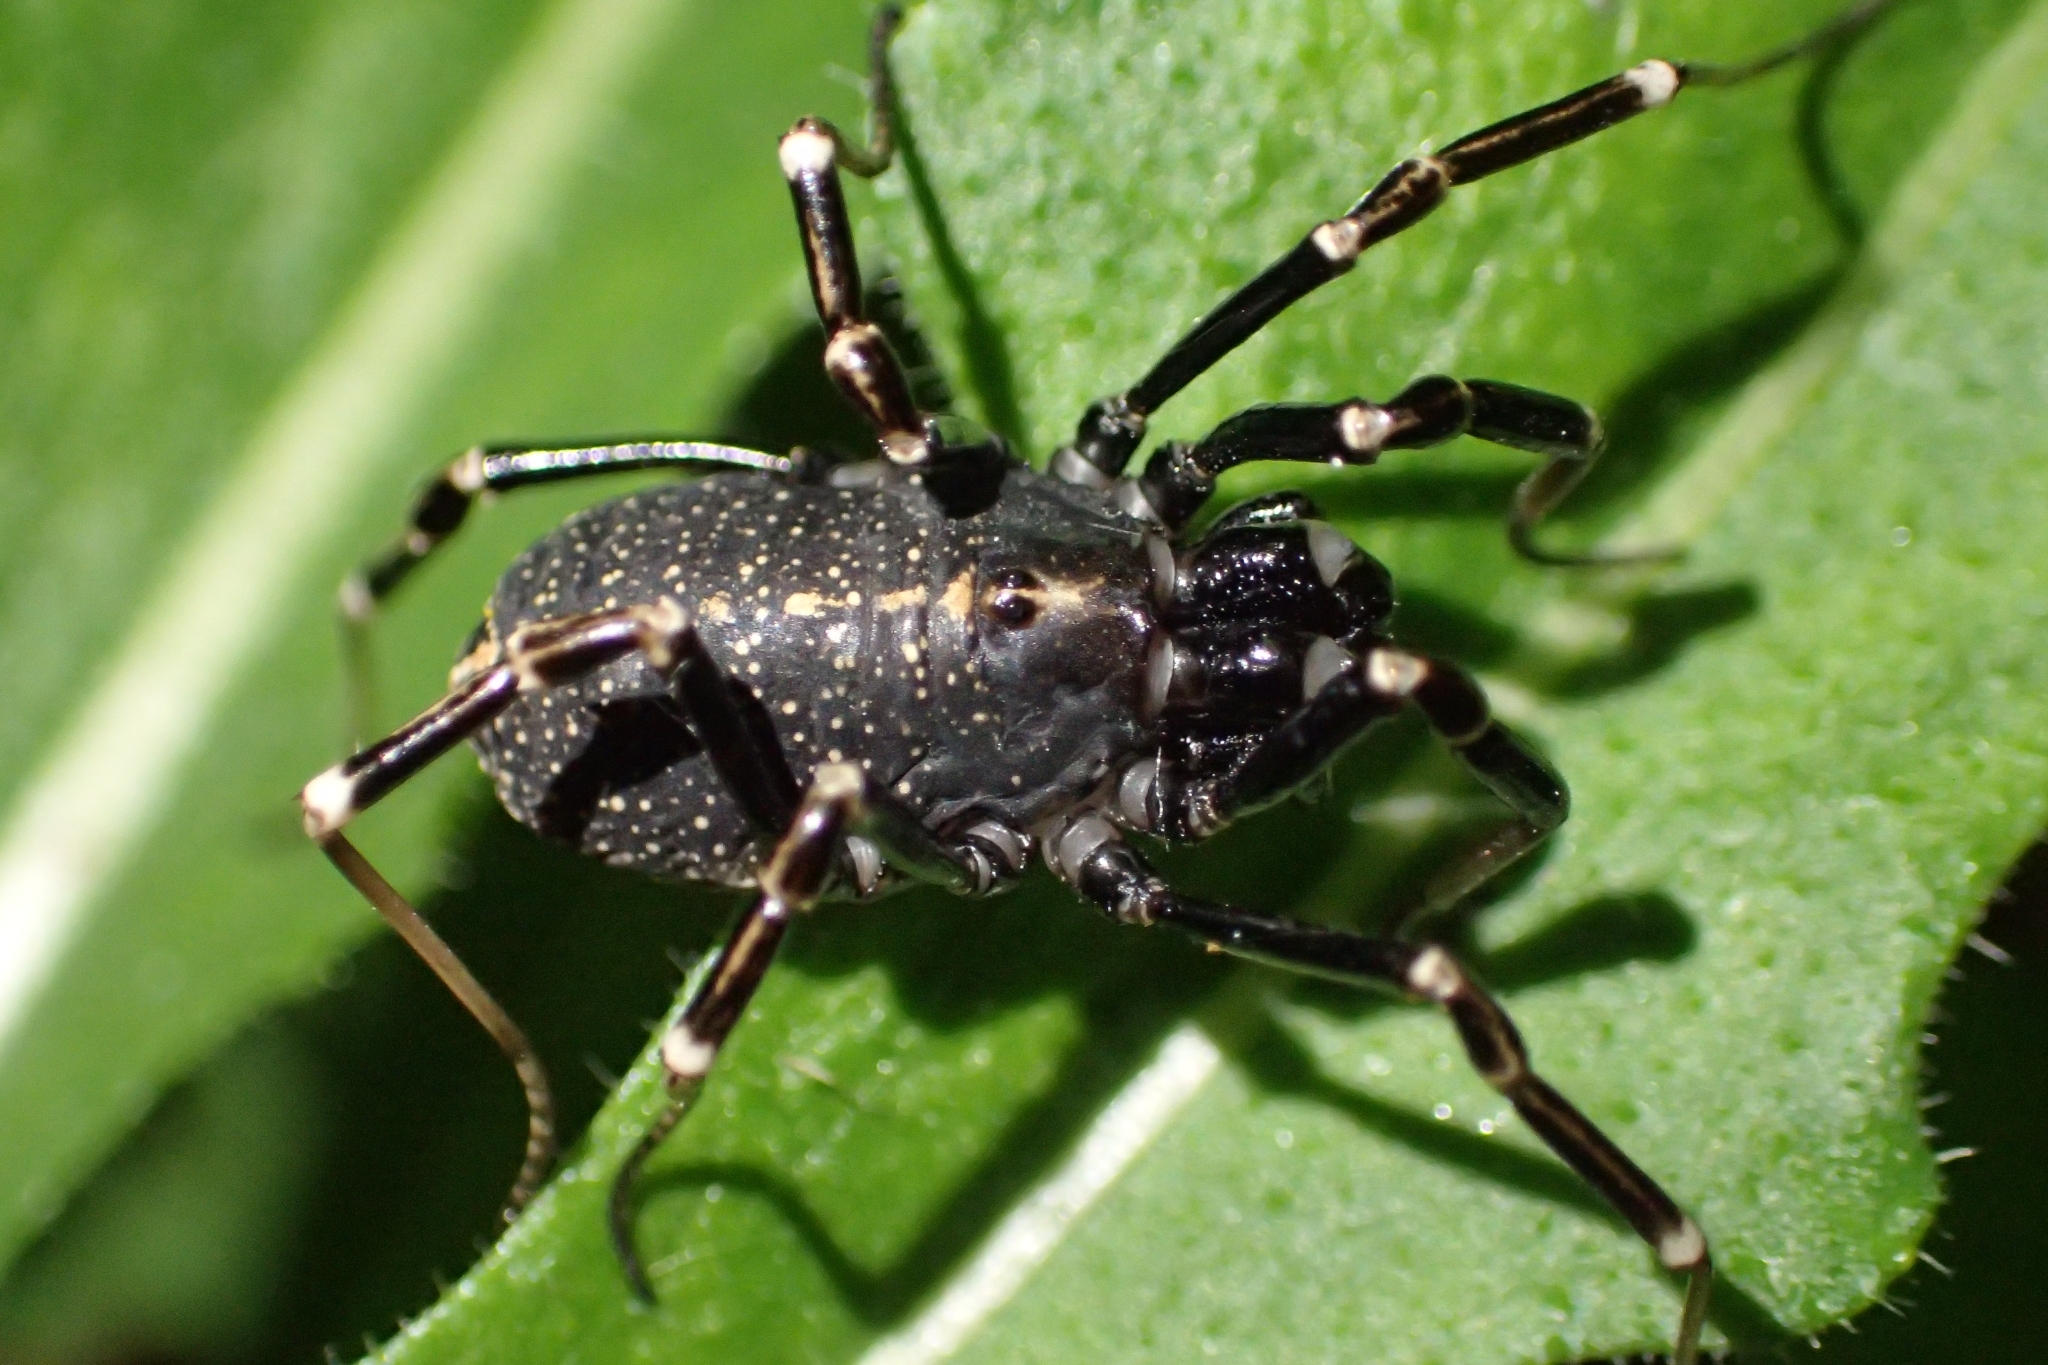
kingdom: Animalia
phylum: Arthropoda
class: Arachnida
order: Opiliones
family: Phalangiidae
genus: Egaenus
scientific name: Egaenus convexus
